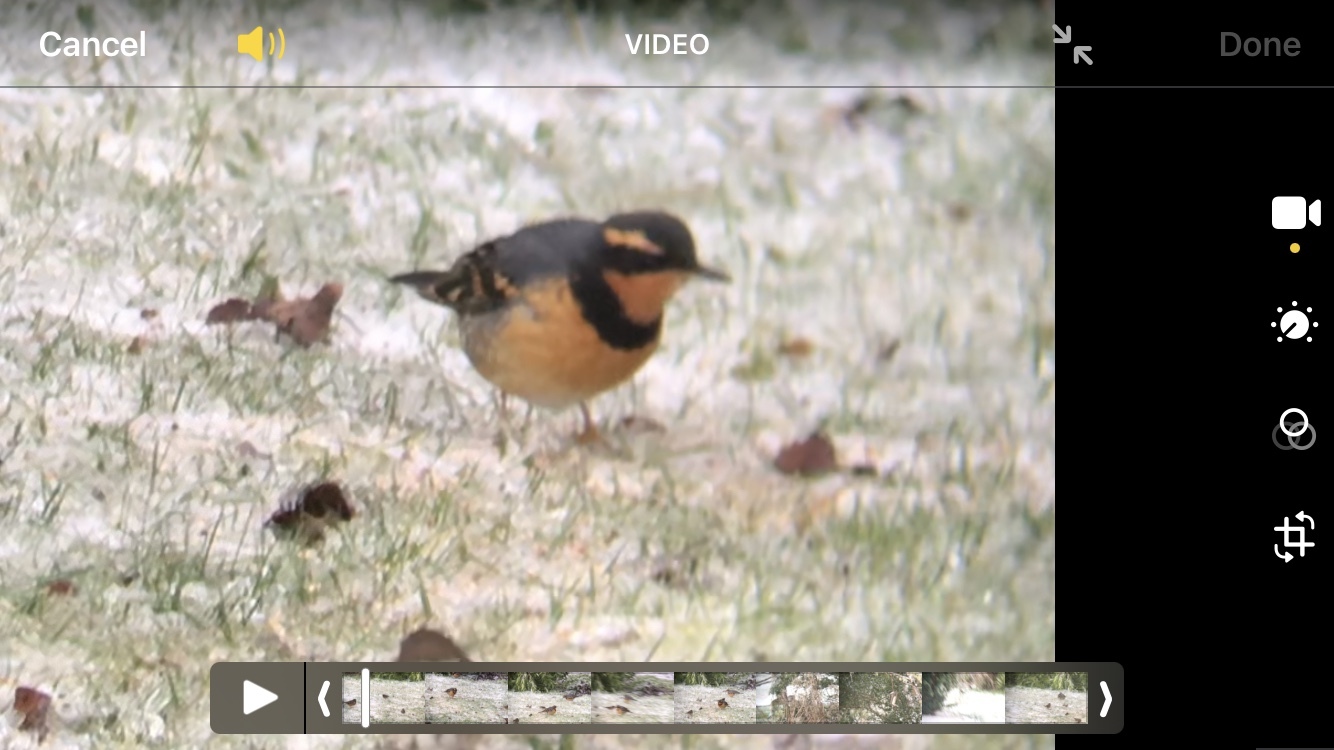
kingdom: Animalia
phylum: Chordata
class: Aves
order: Passeriformes
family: Turdidae
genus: Ixoreus
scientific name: Ixoreus naevius
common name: Varied thrush
